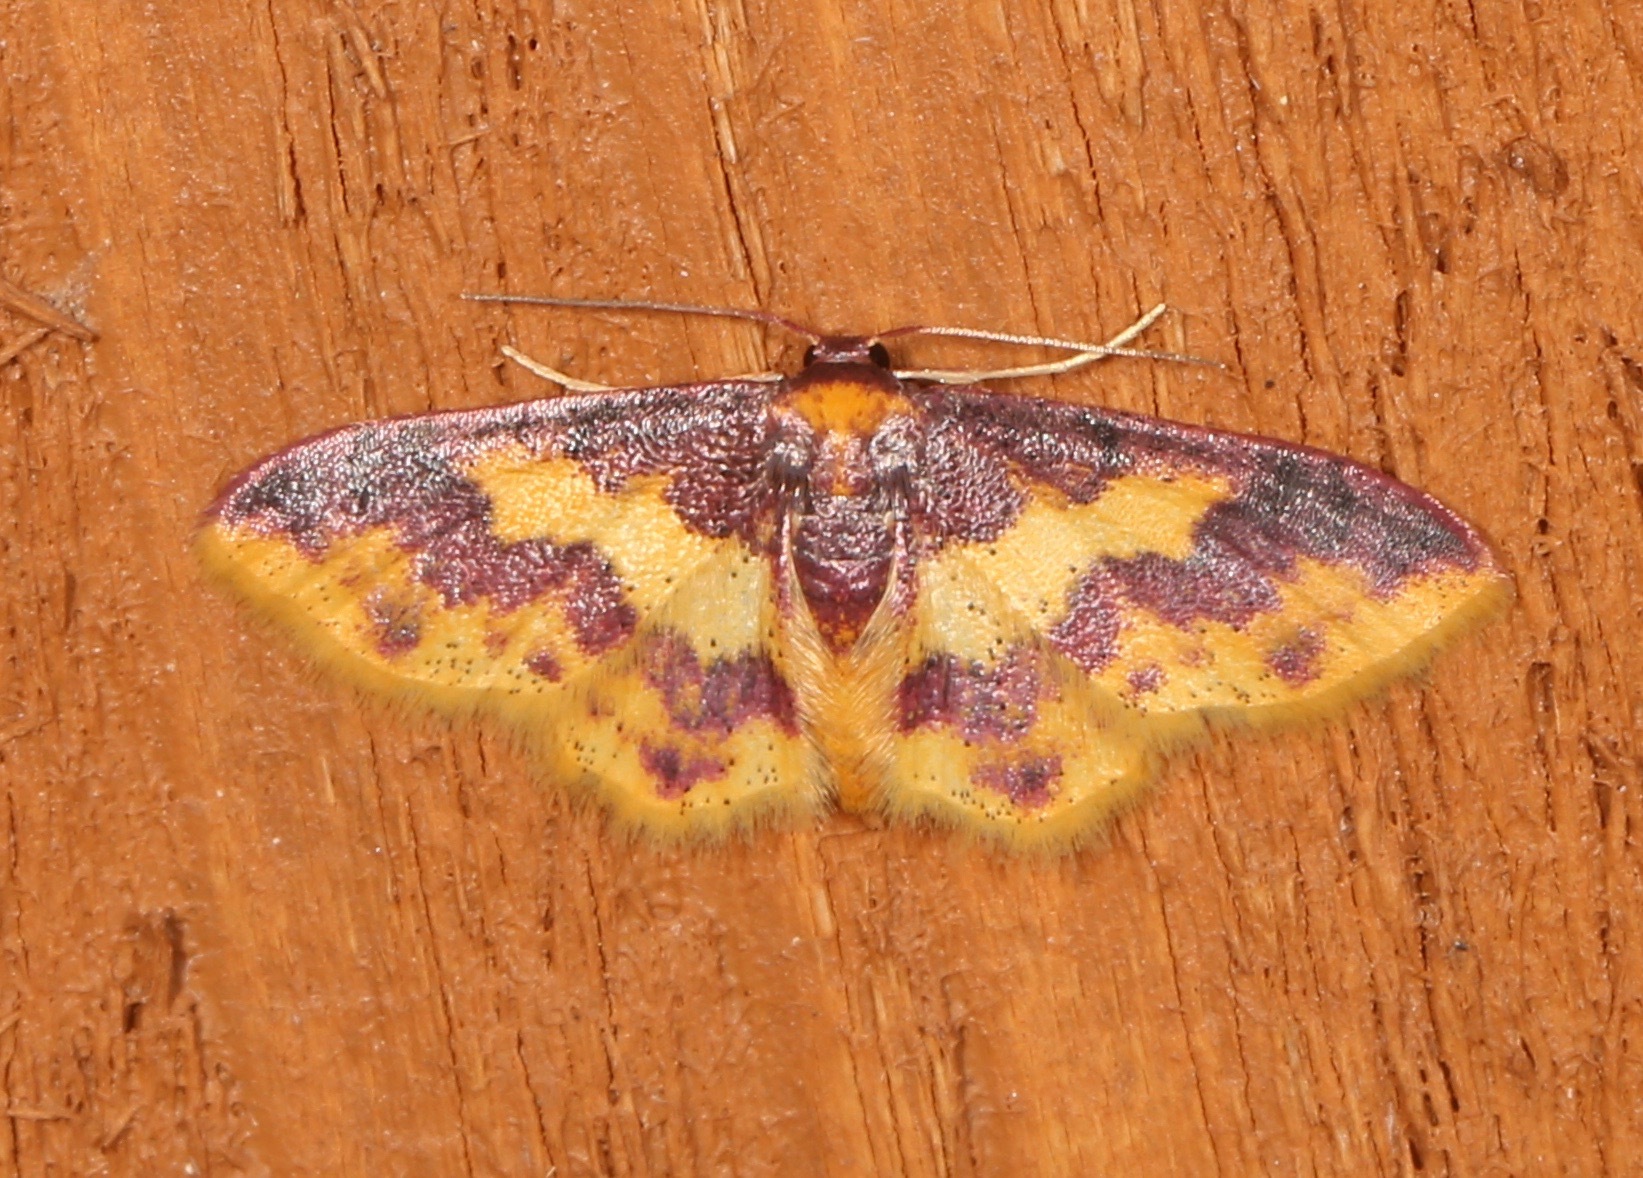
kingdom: Animalia
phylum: Arthropoda
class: Insecta
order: Lepidoptera
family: Geometridae
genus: Lophosis
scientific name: Lophosis labeculata
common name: Stained lophosis moth
